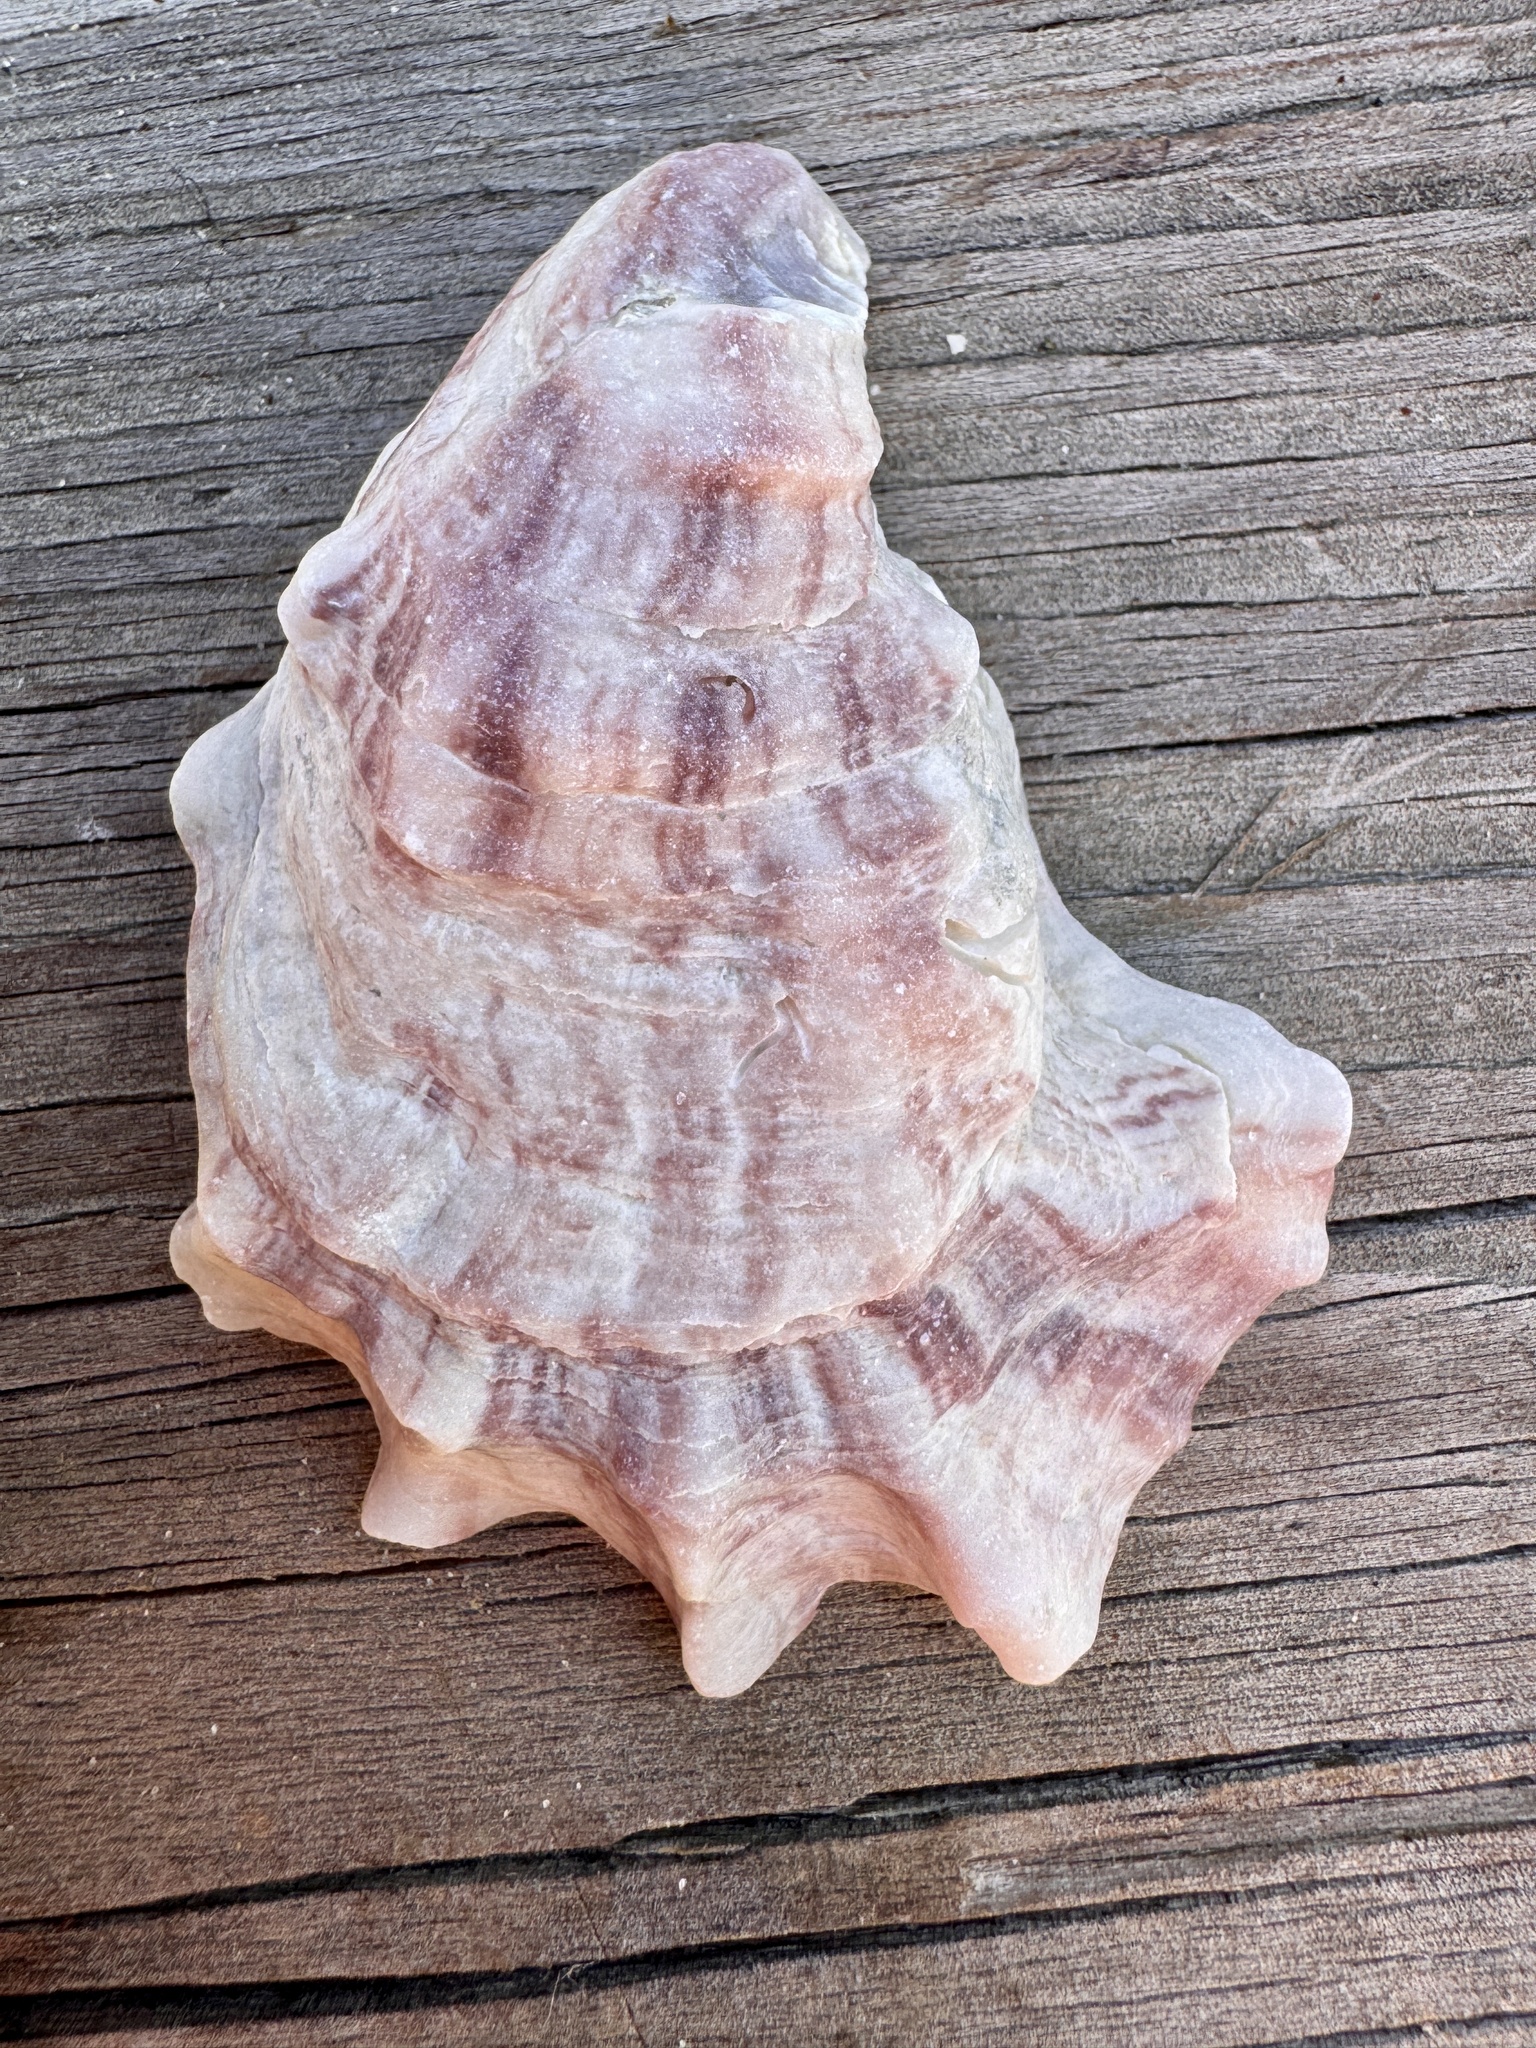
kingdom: Animalia
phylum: Mollusca
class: Bivalvia
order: Ostreida
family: Ostreidae
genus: Crassostrea
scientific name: Crassostrea virginica
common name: American oyster
